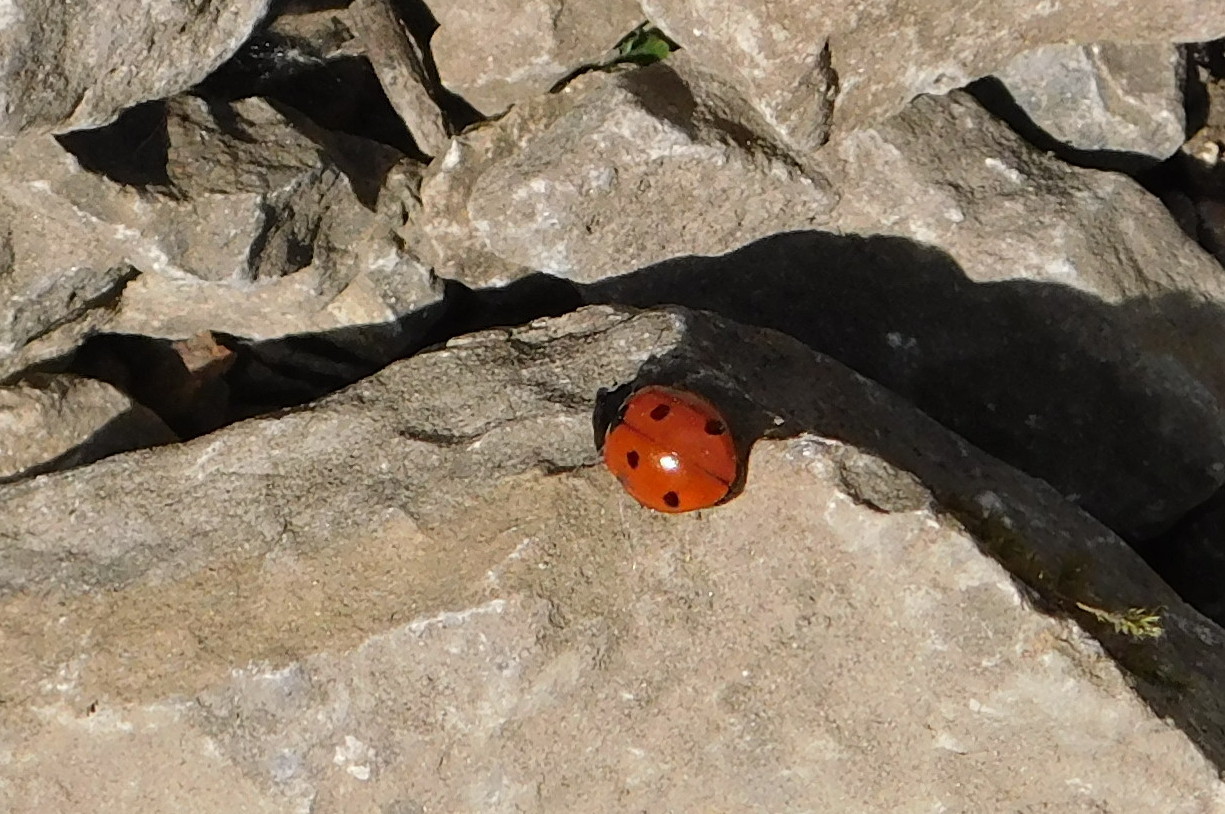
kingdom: Animalia
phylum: Arthropoda
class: Insecta
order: Coleoptera
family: Coccinellidae
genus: Coccinella
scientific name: Coccinella septempunctata
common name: Sevenspotted lady beetle
